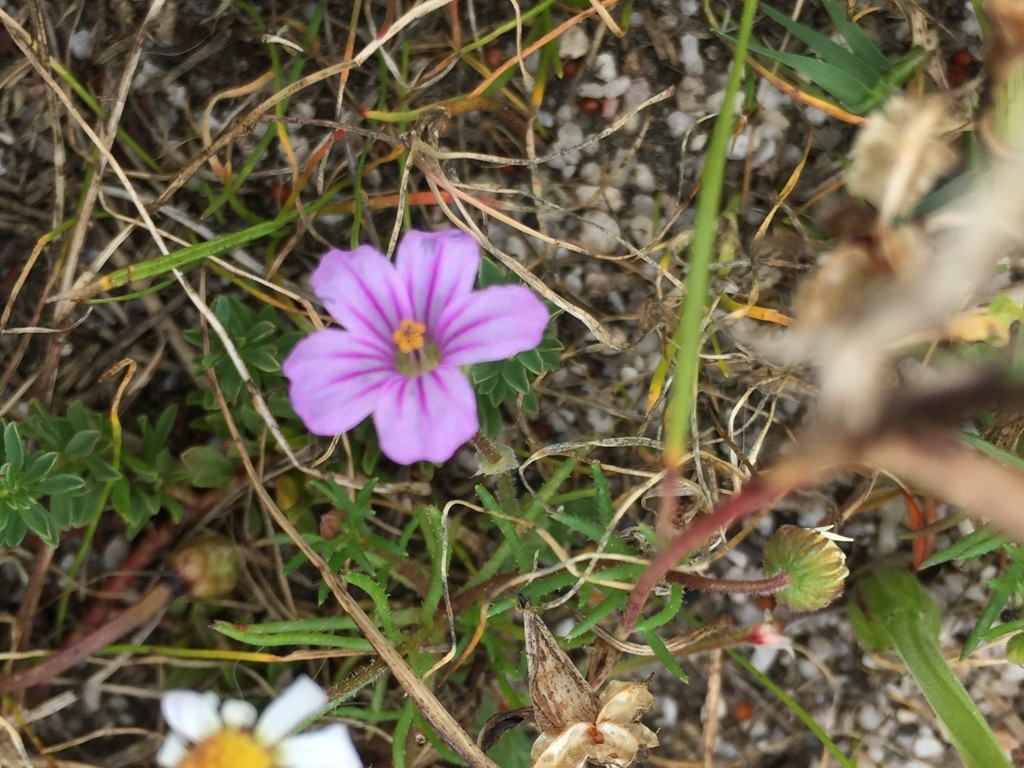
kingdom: Plantae
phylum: Tracheophyta
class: Magnoliopsida
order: Geraniales
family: Geraniaceae
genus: Erodium
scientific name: Erodium botrys
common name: Mediterranean stork's-bill
